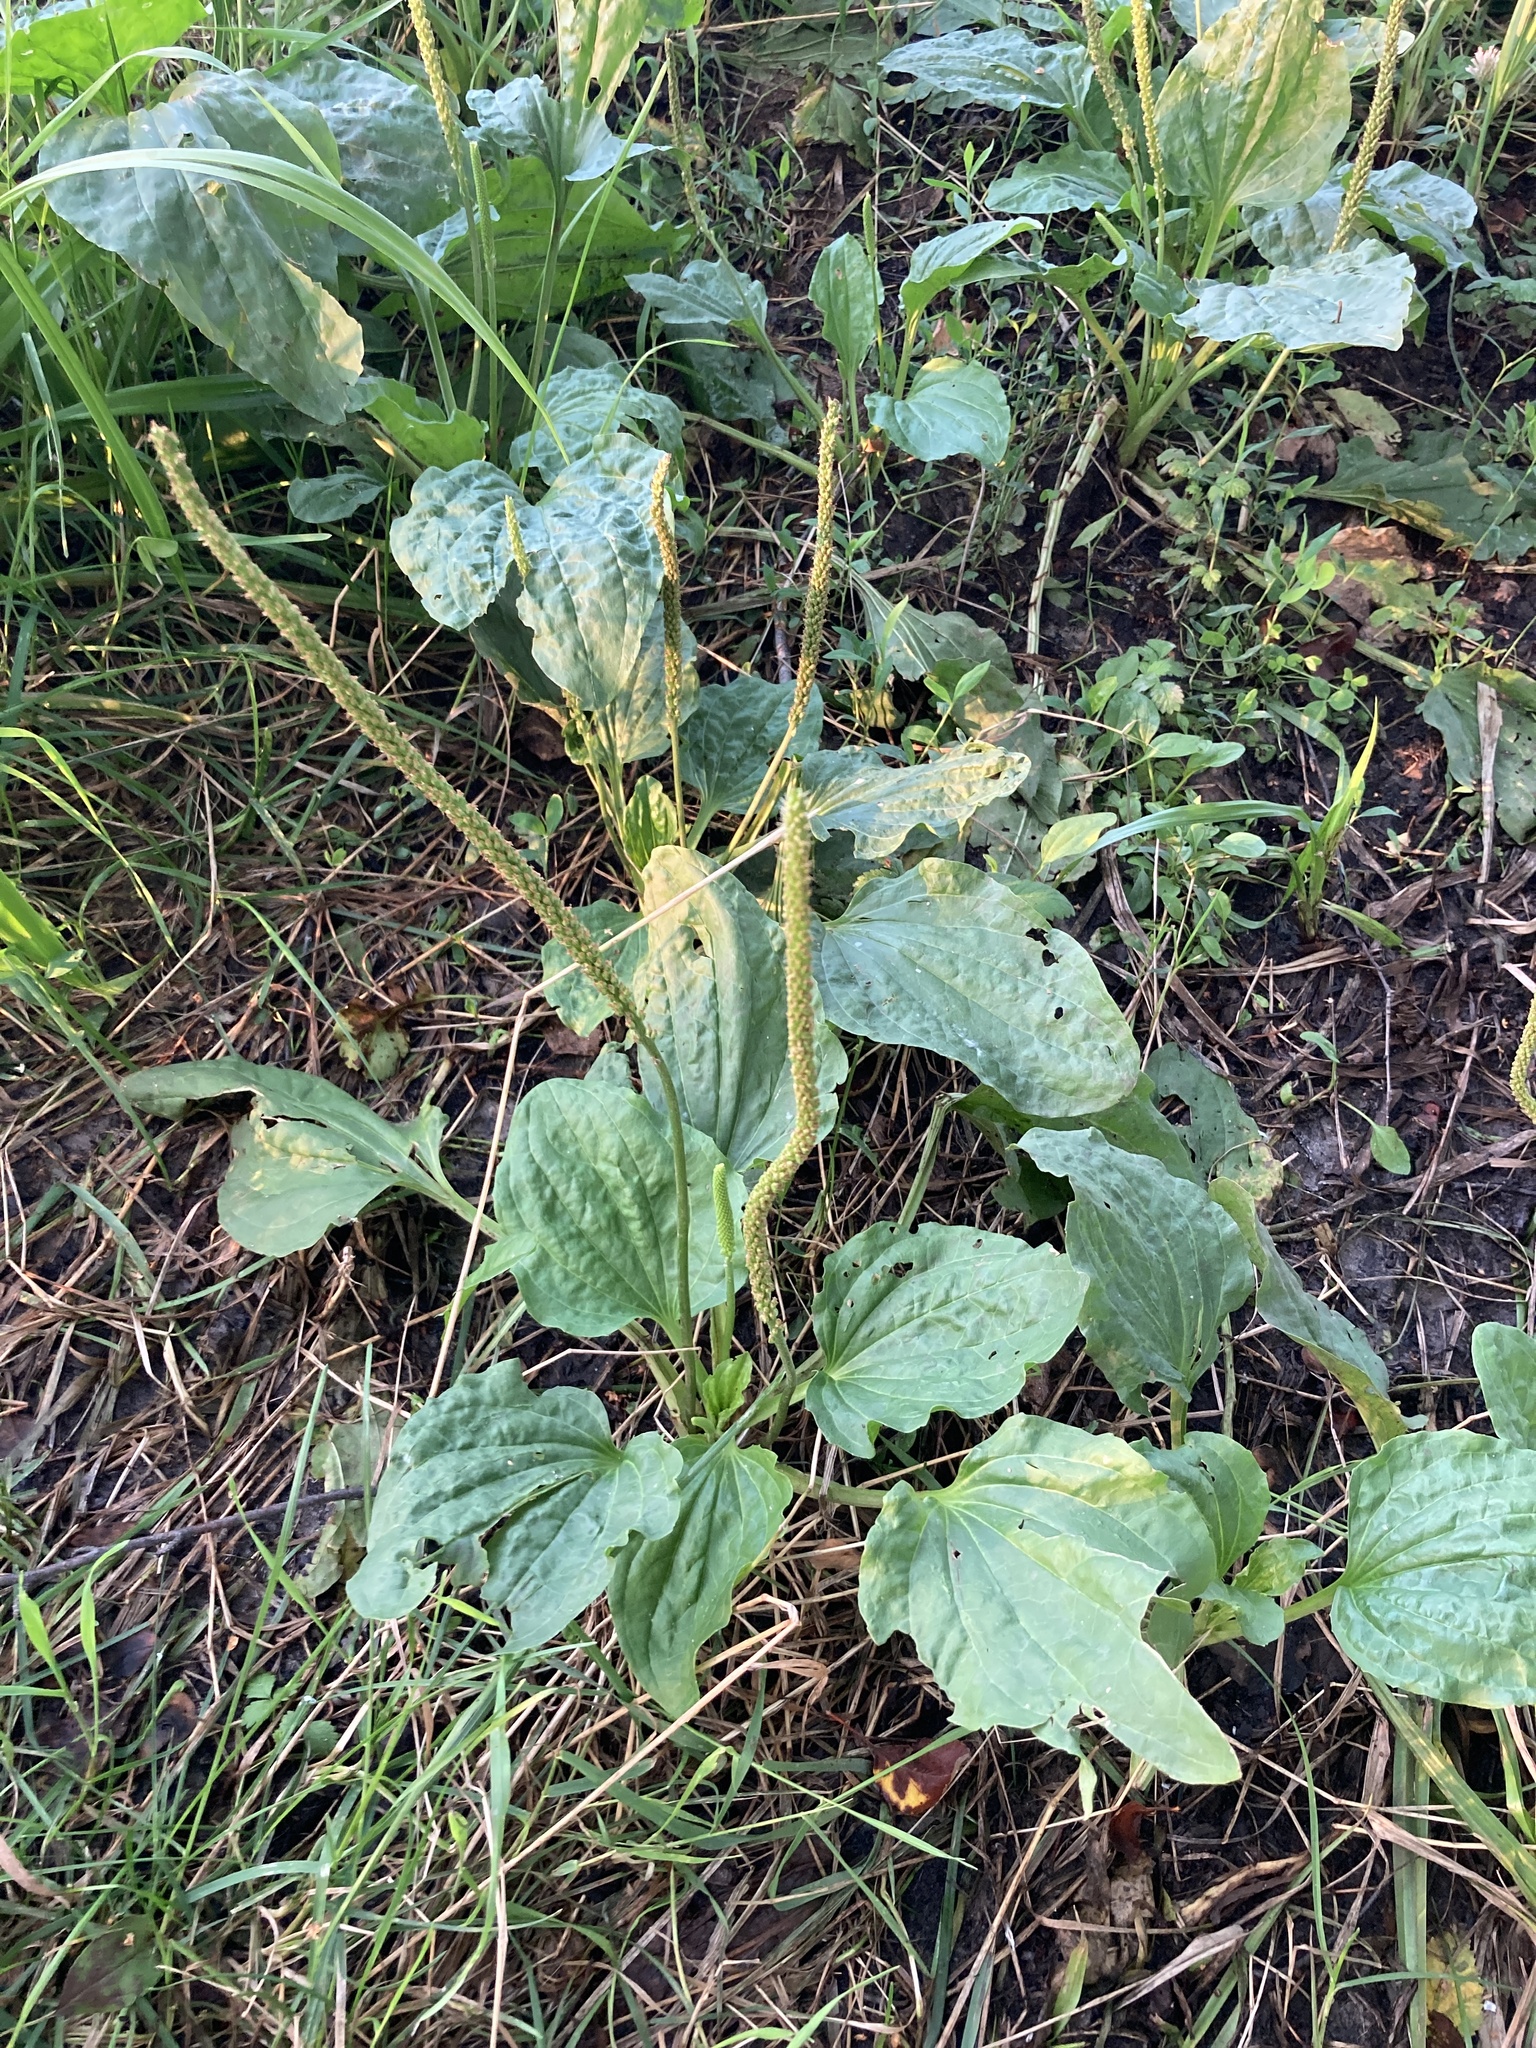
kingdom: Plantae
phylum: Tracheophyta
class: Magnoliopsida
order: Lamiales
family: Plantaginaceae
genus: Plantago
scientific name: Plantago major
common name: Common plantain
